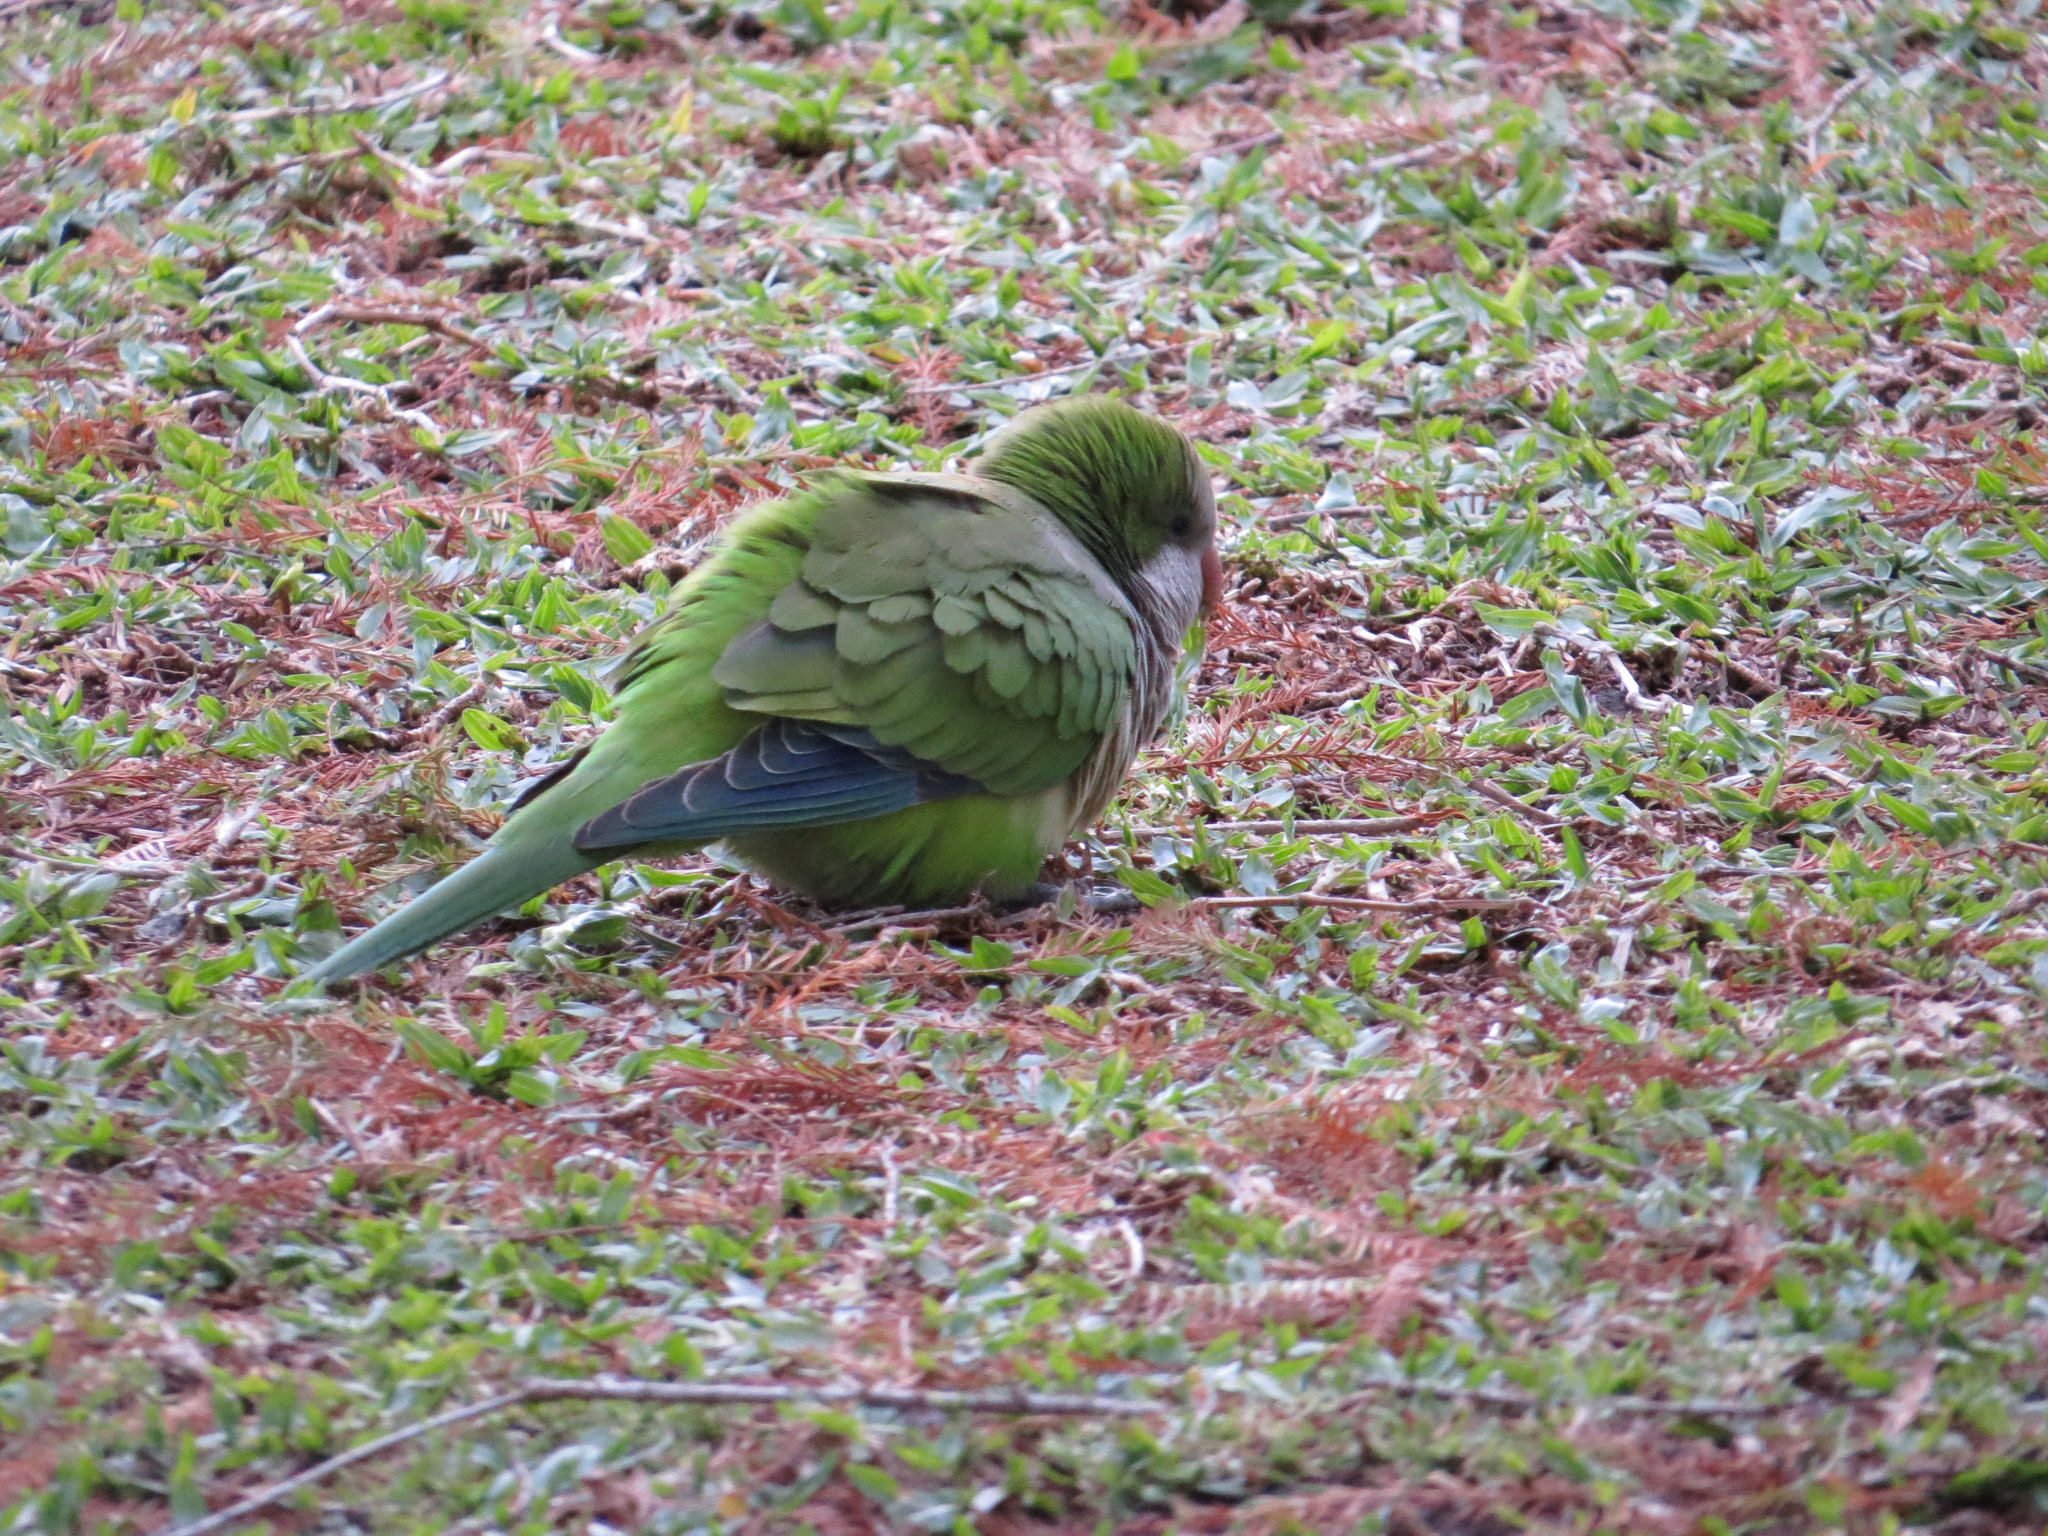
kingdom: Animalia
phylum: Chordata
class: Aves
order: Psittaciformes
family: Psittacidae
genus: Myiopsitta
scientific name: Myiopsitta monachus
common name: Monk parakeet
